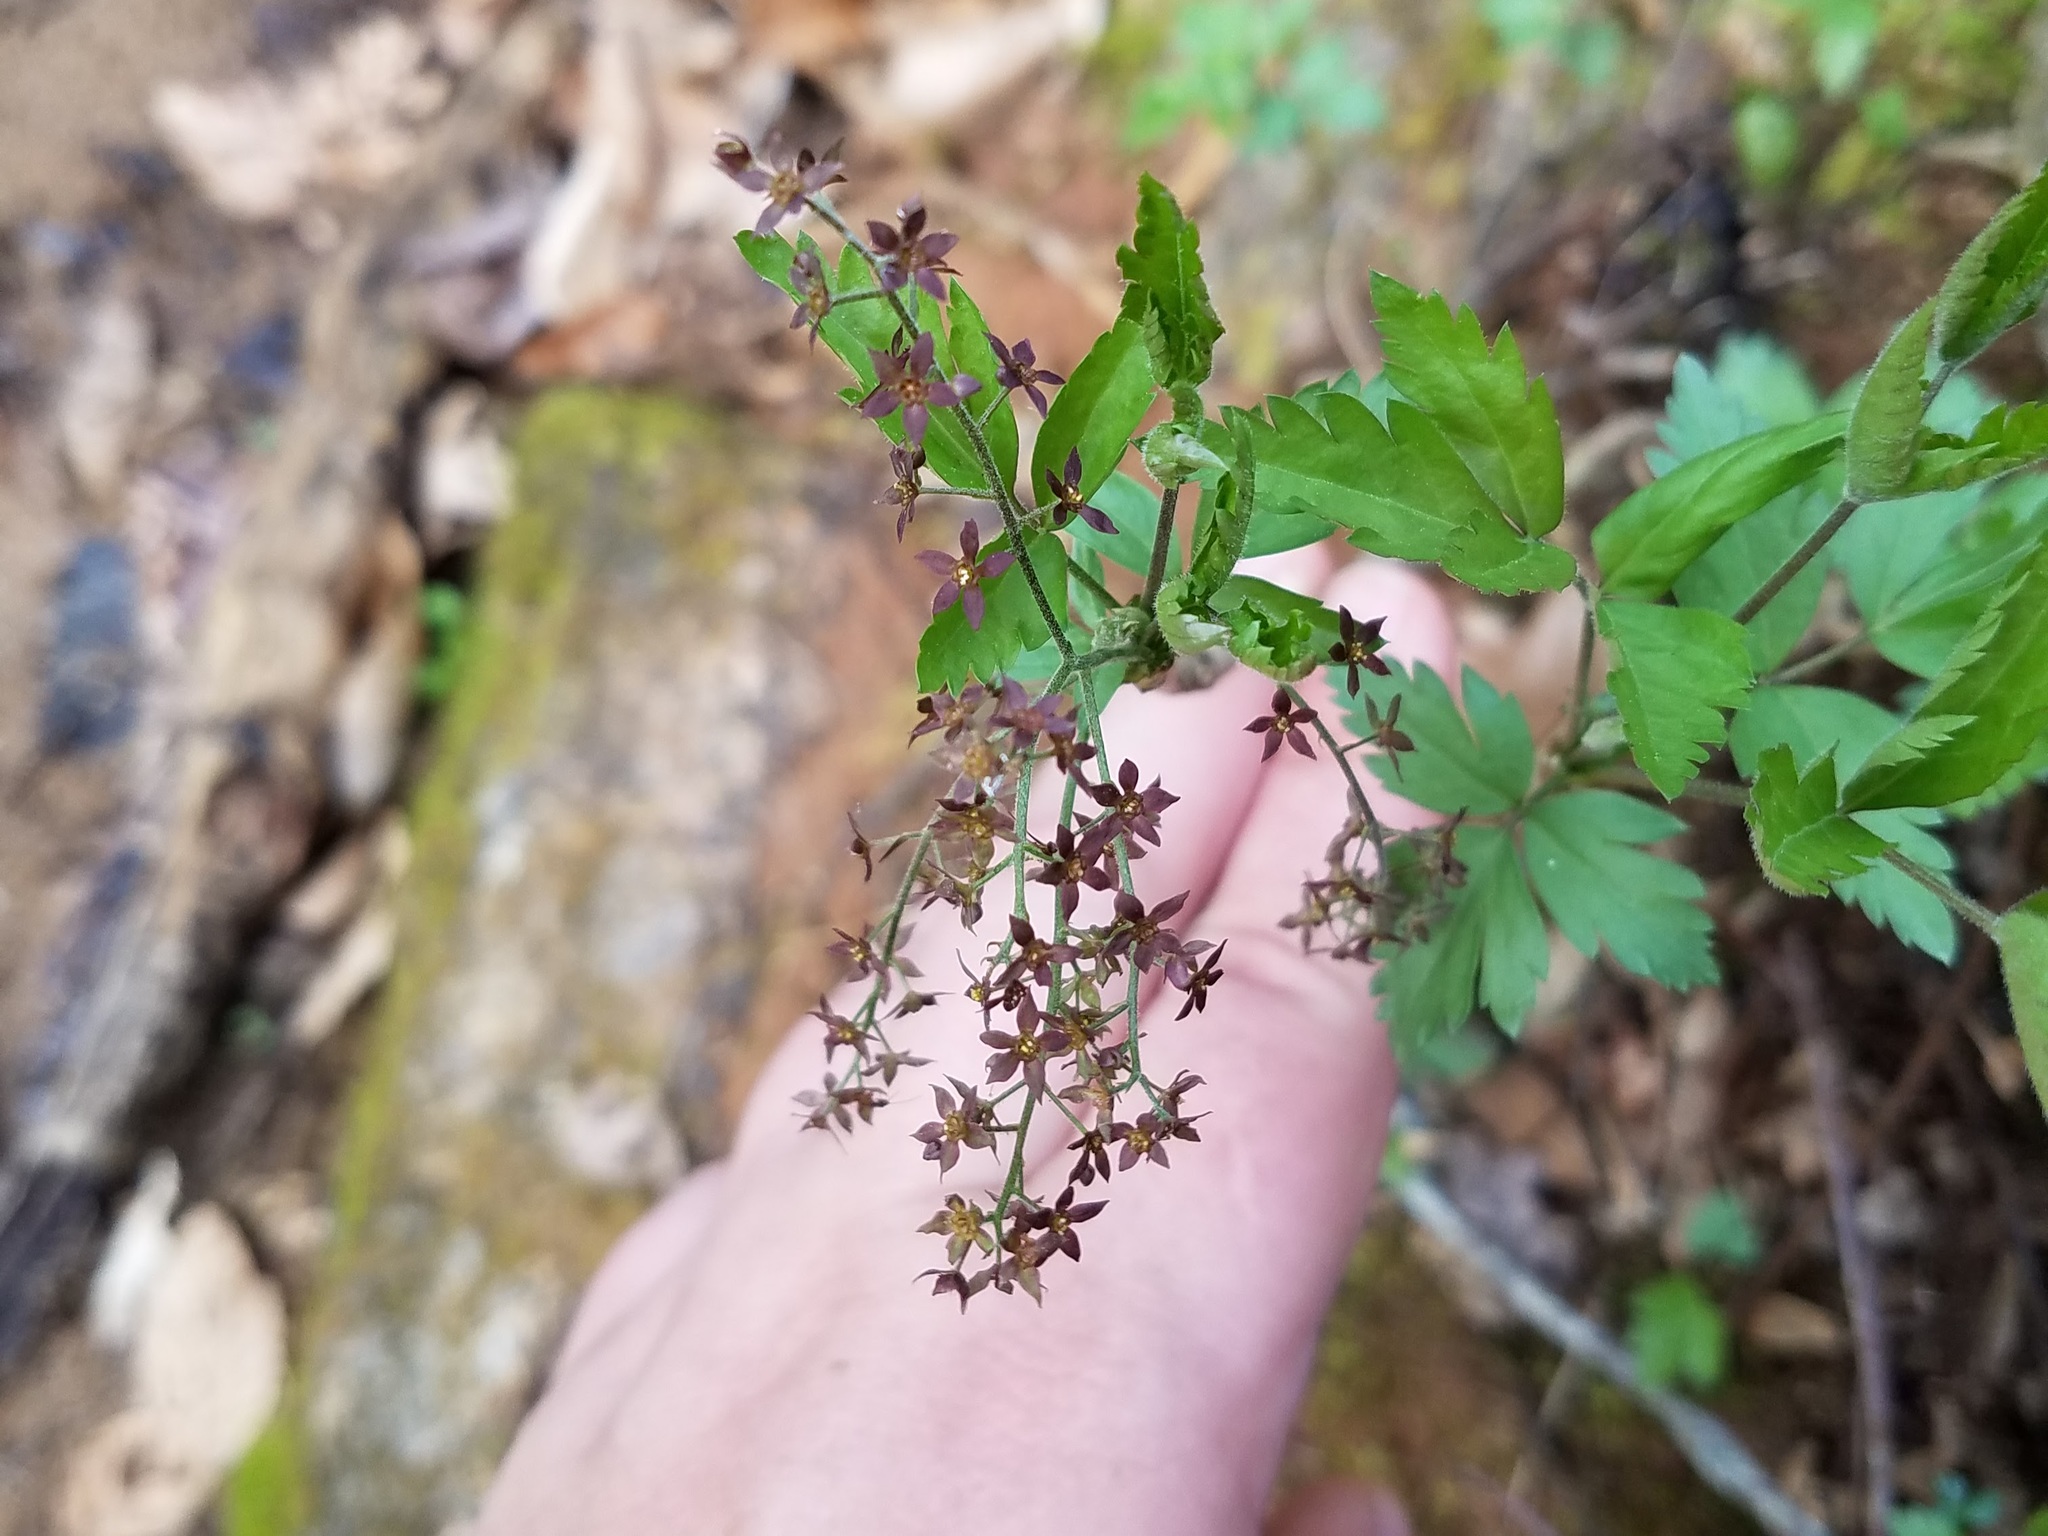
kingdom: Plantae
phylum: Tracheophyta
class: Magnoliopsida
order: Ranunculales
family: Ranunculaceae
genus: Xanthorhiza
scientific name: Xanthorhiza simplicissima
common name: Yellowroot
